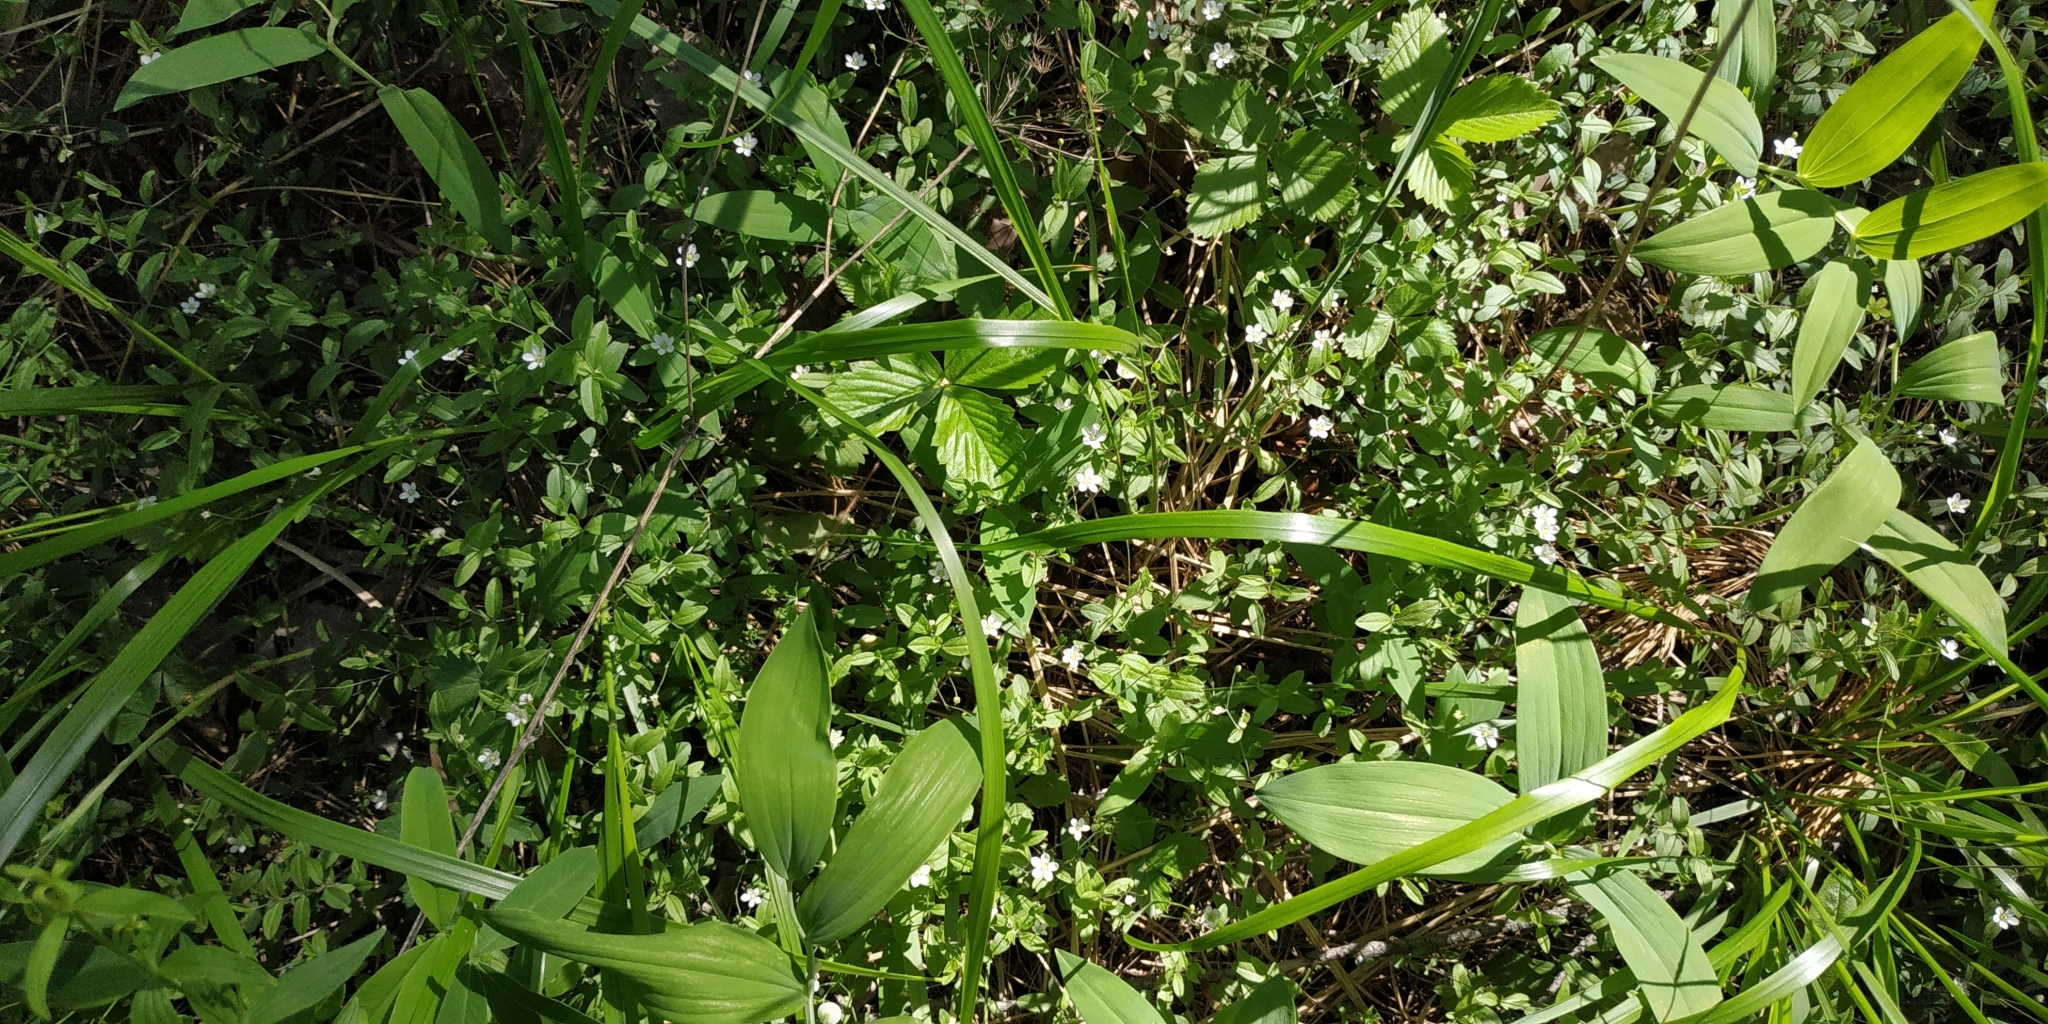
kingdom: Plantae
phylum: Tracheophyta
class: Magnoliopsida
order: Caryophyllales
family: Caryophyllaceae
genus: Moehringia
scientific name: Moehringia lateriflora
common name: Blunt-leaved sandwort
